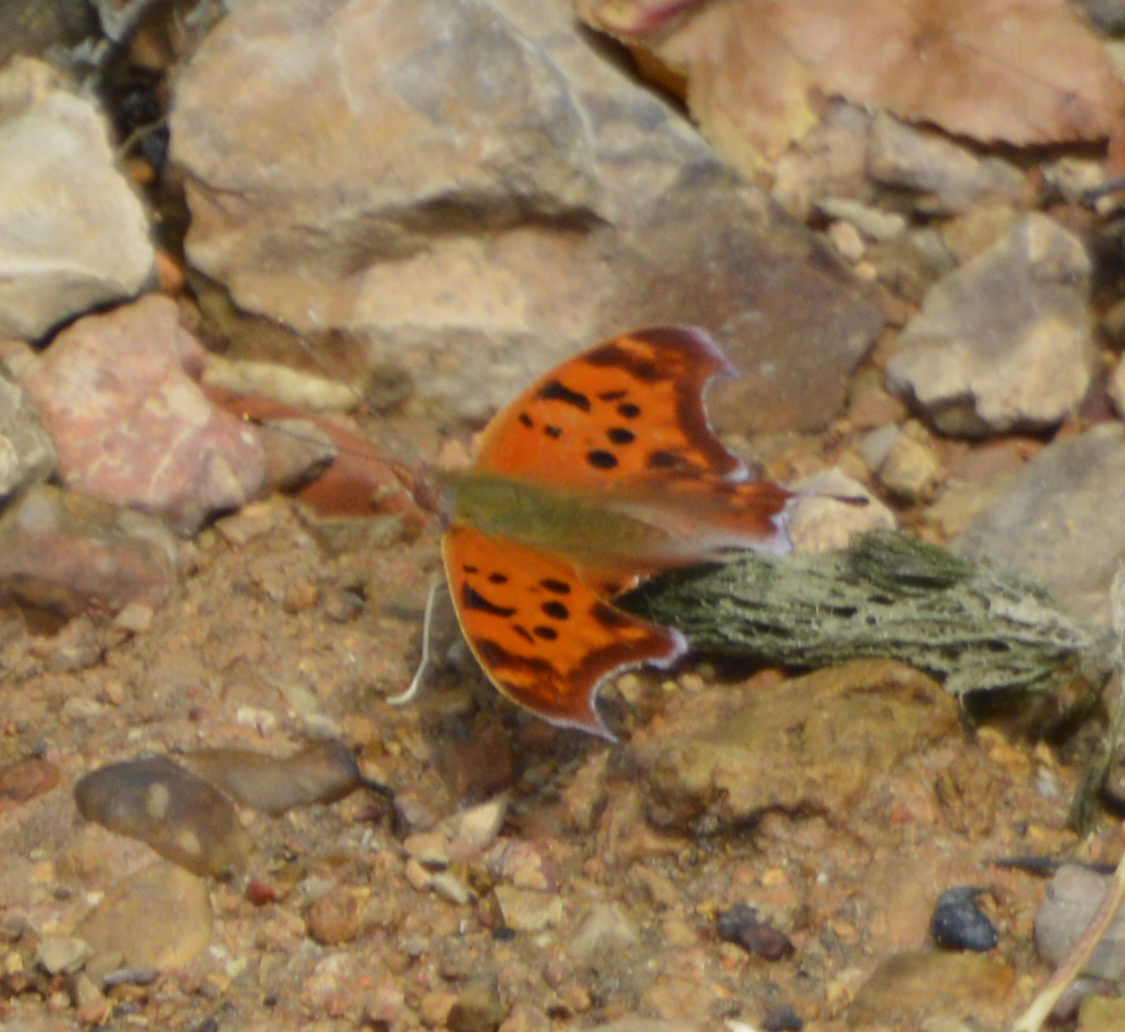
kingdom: Animalia
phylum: Arthropoda
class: Insecta
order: Lepidoptera
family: Nymphalidae
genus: Polygonia
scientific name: Polygonia interrogationis
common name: Question mark
